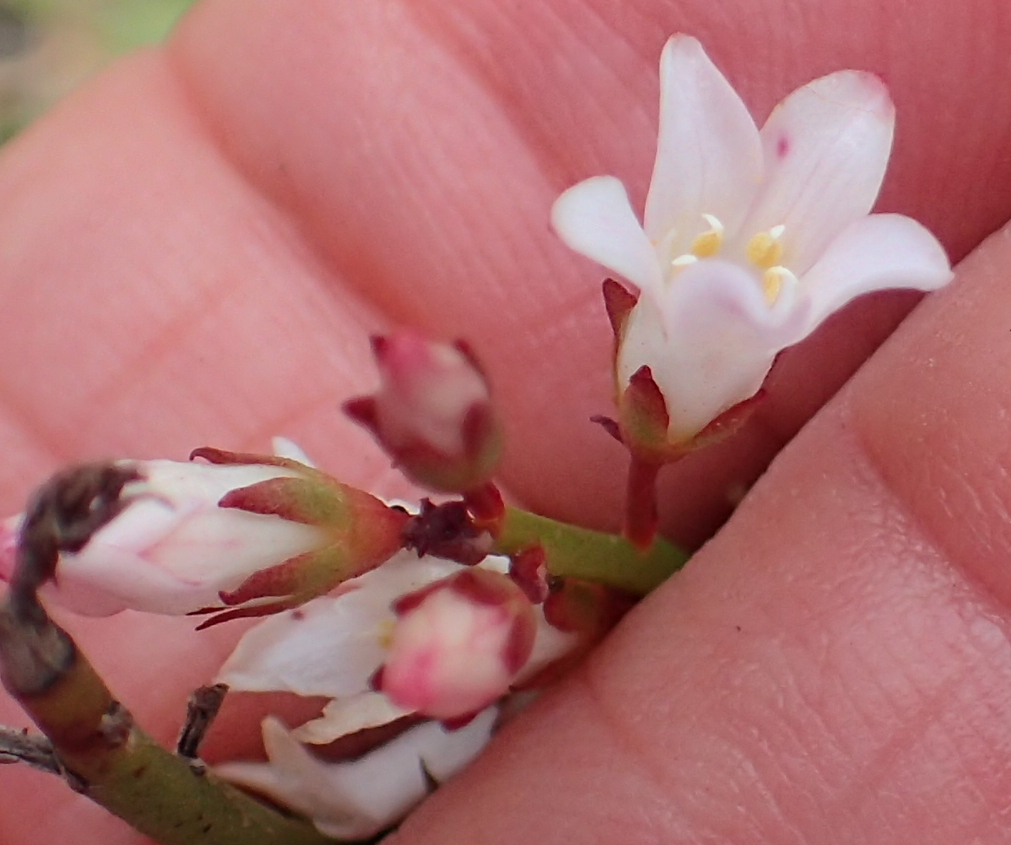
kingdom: Plantae
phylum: Tracheophyta
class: Magnoliopsida
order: Ericales
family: Primulaceae
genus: Samolus
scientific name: Samolus porosus
